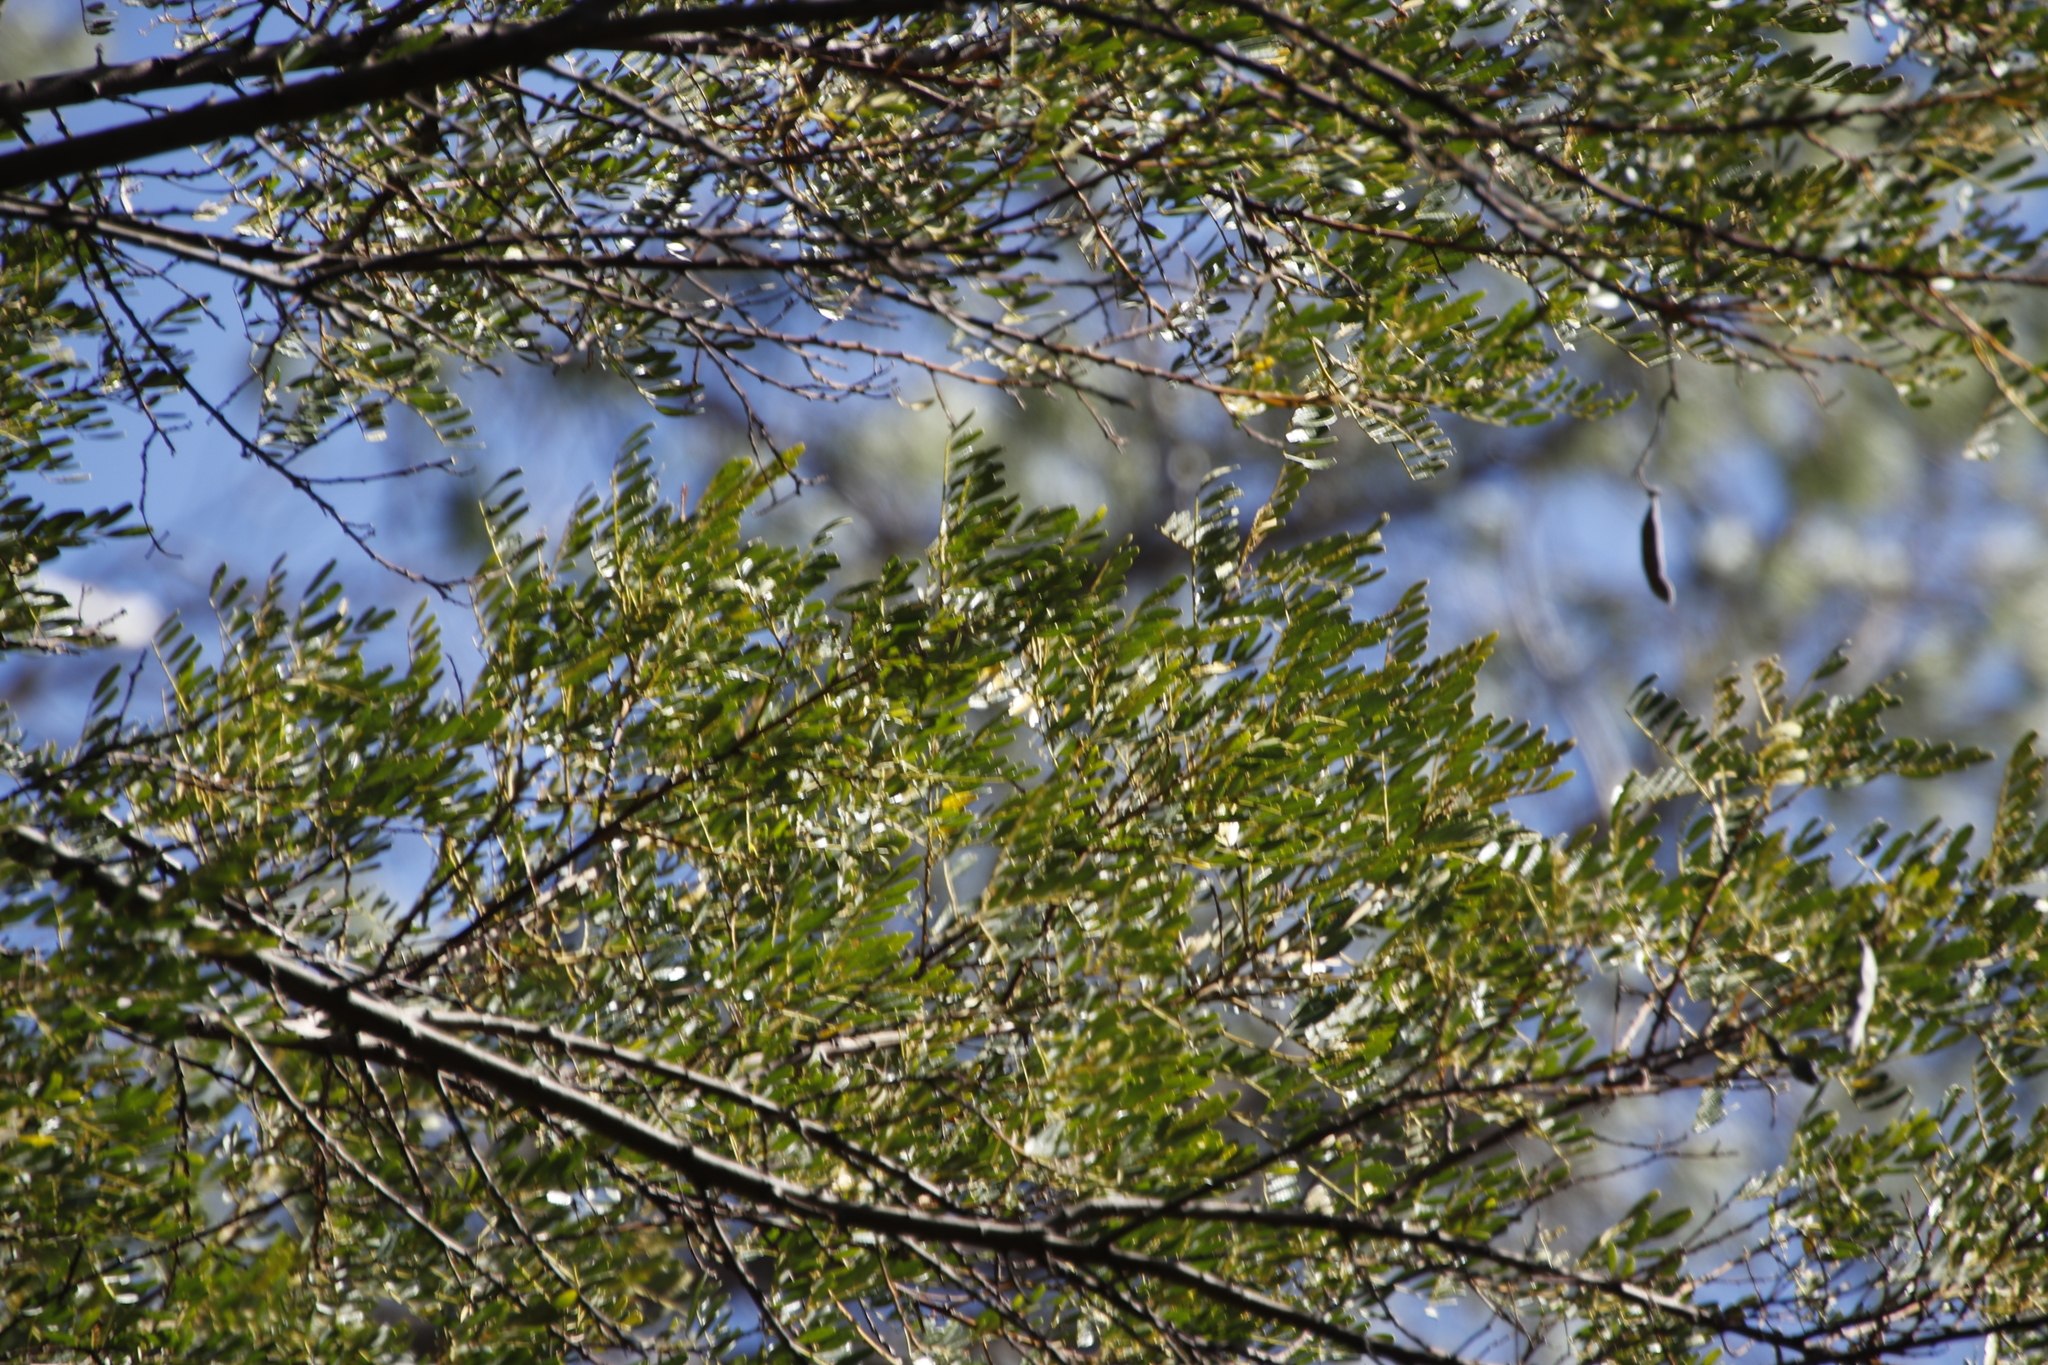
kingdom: Plantae
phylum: Tracheophyta
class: Magnoliopsida
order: Fabales
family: Fabaceae
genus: Virgilia
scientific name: Virgilia oroboides
